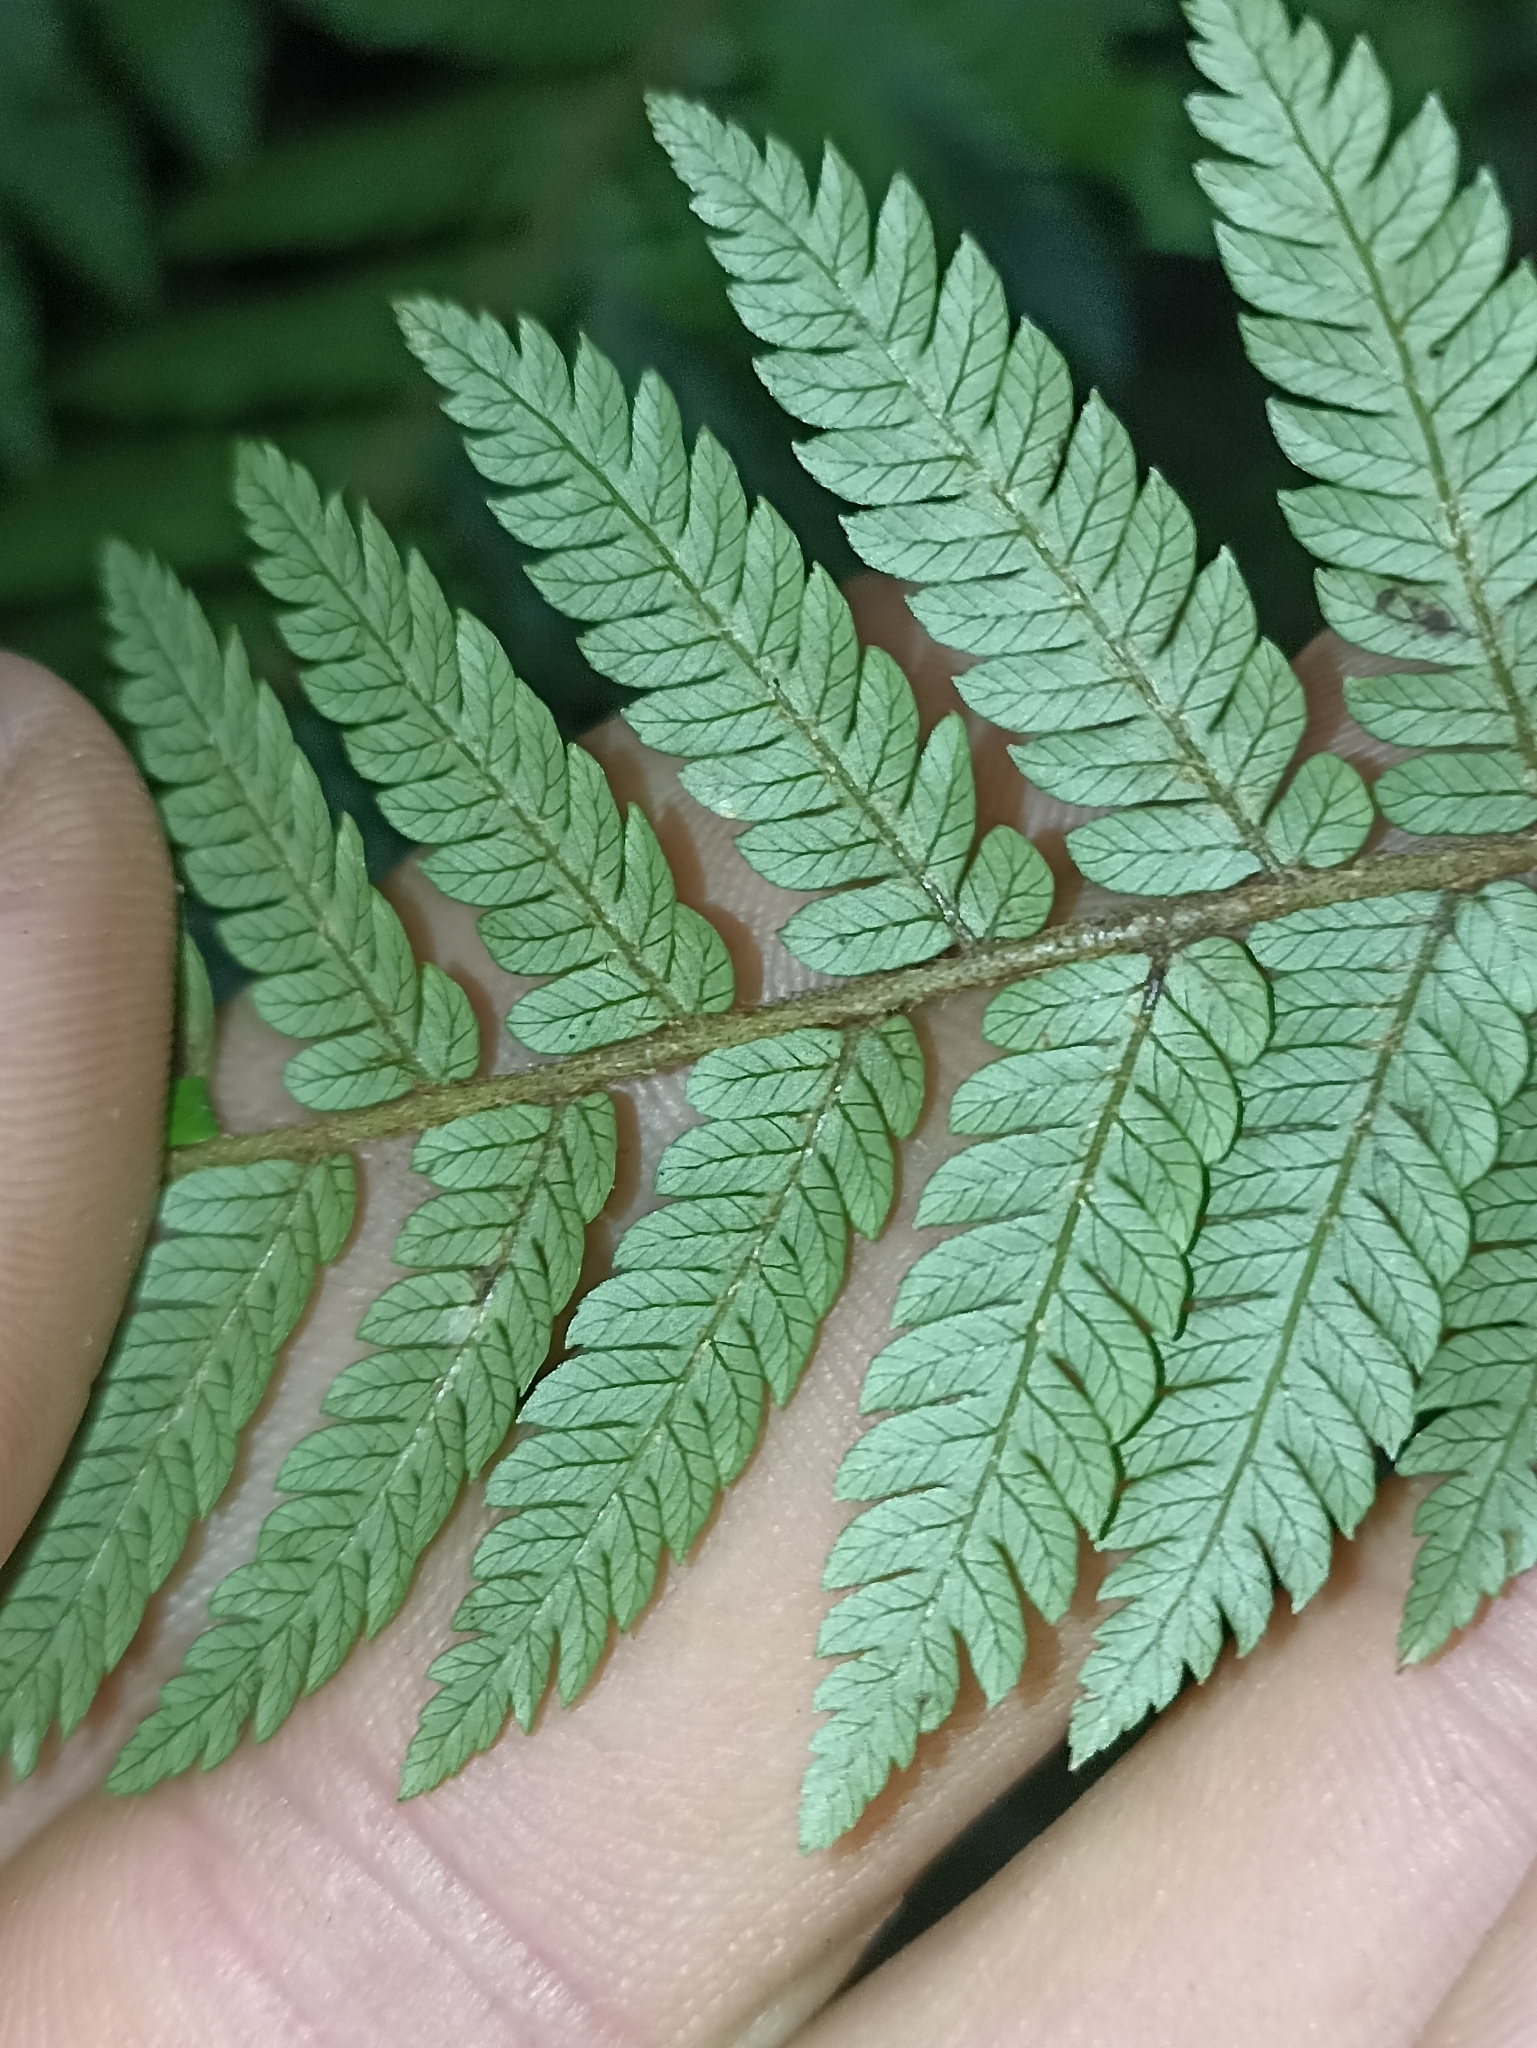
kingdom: Plantae
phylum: Tracheophyta
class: Polypodiopsida
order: Cyatheales
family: Cyatheaceae
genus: Alsophila
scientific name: Alsophila smithii
